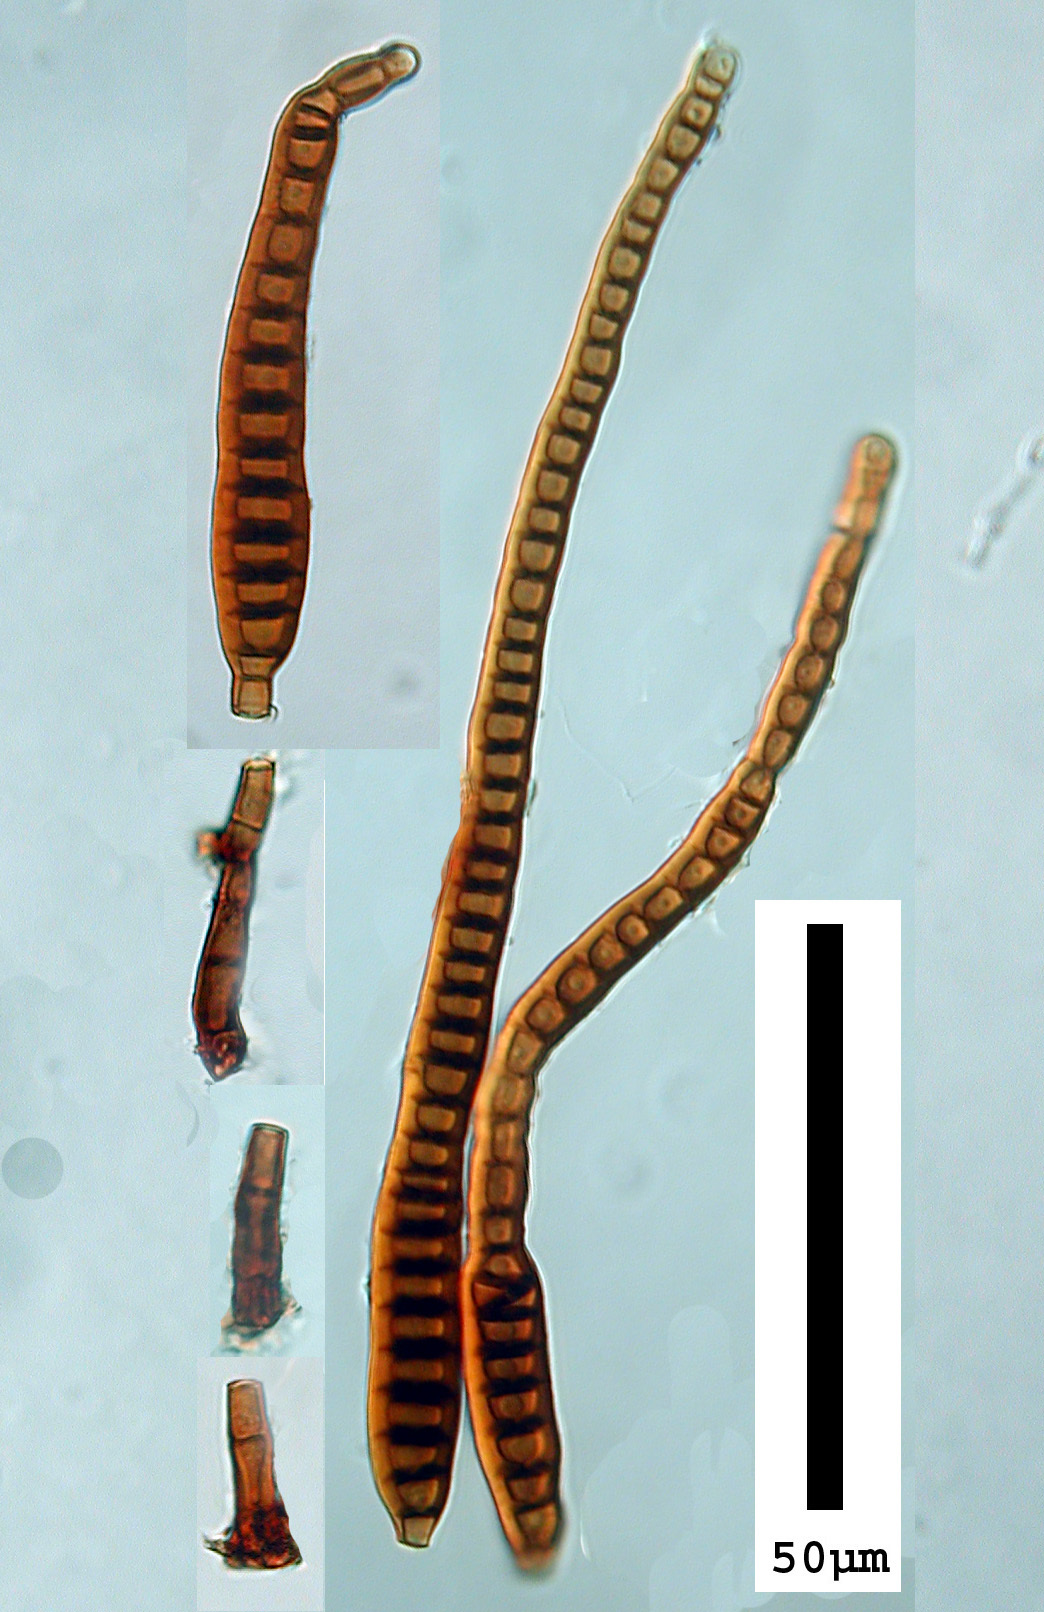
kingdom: Fungi
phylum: Ascomycota
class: Dothideomycetes
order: Pleosporales
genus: Sporidesmium
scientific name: Sporidesmium vagum
